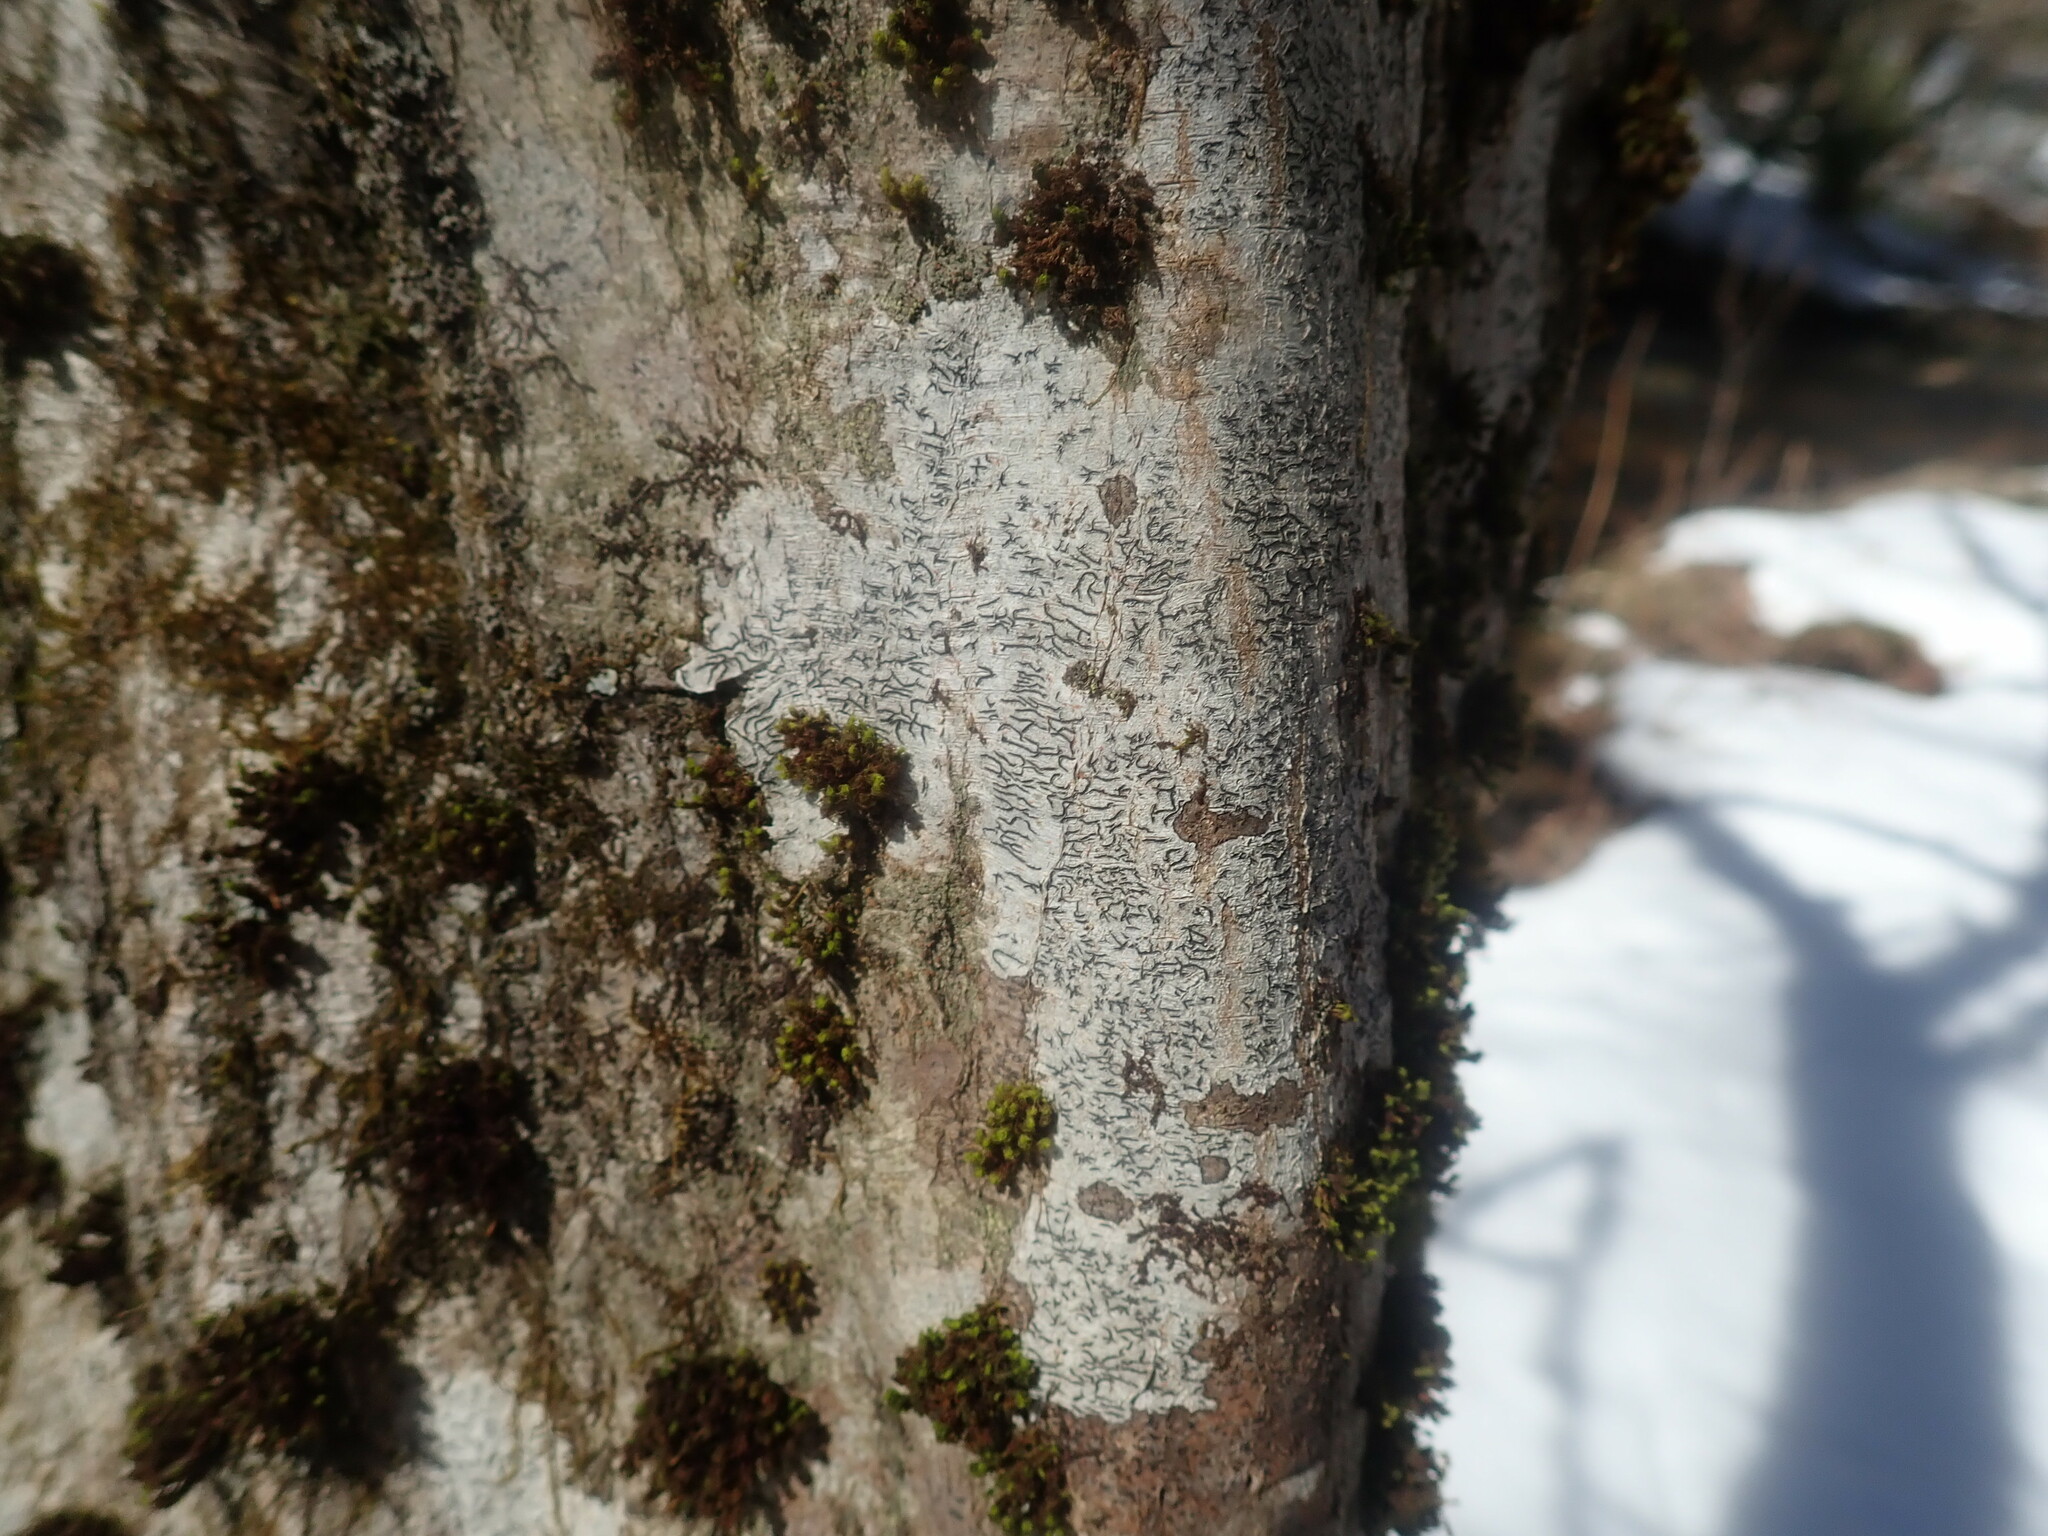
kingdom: Fungi
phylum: Ascomycota
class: Lecanoromycetes
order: Ostropales
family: Graphidaceae
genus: Graphis
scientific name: Graphis scripta
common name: Script lichen
